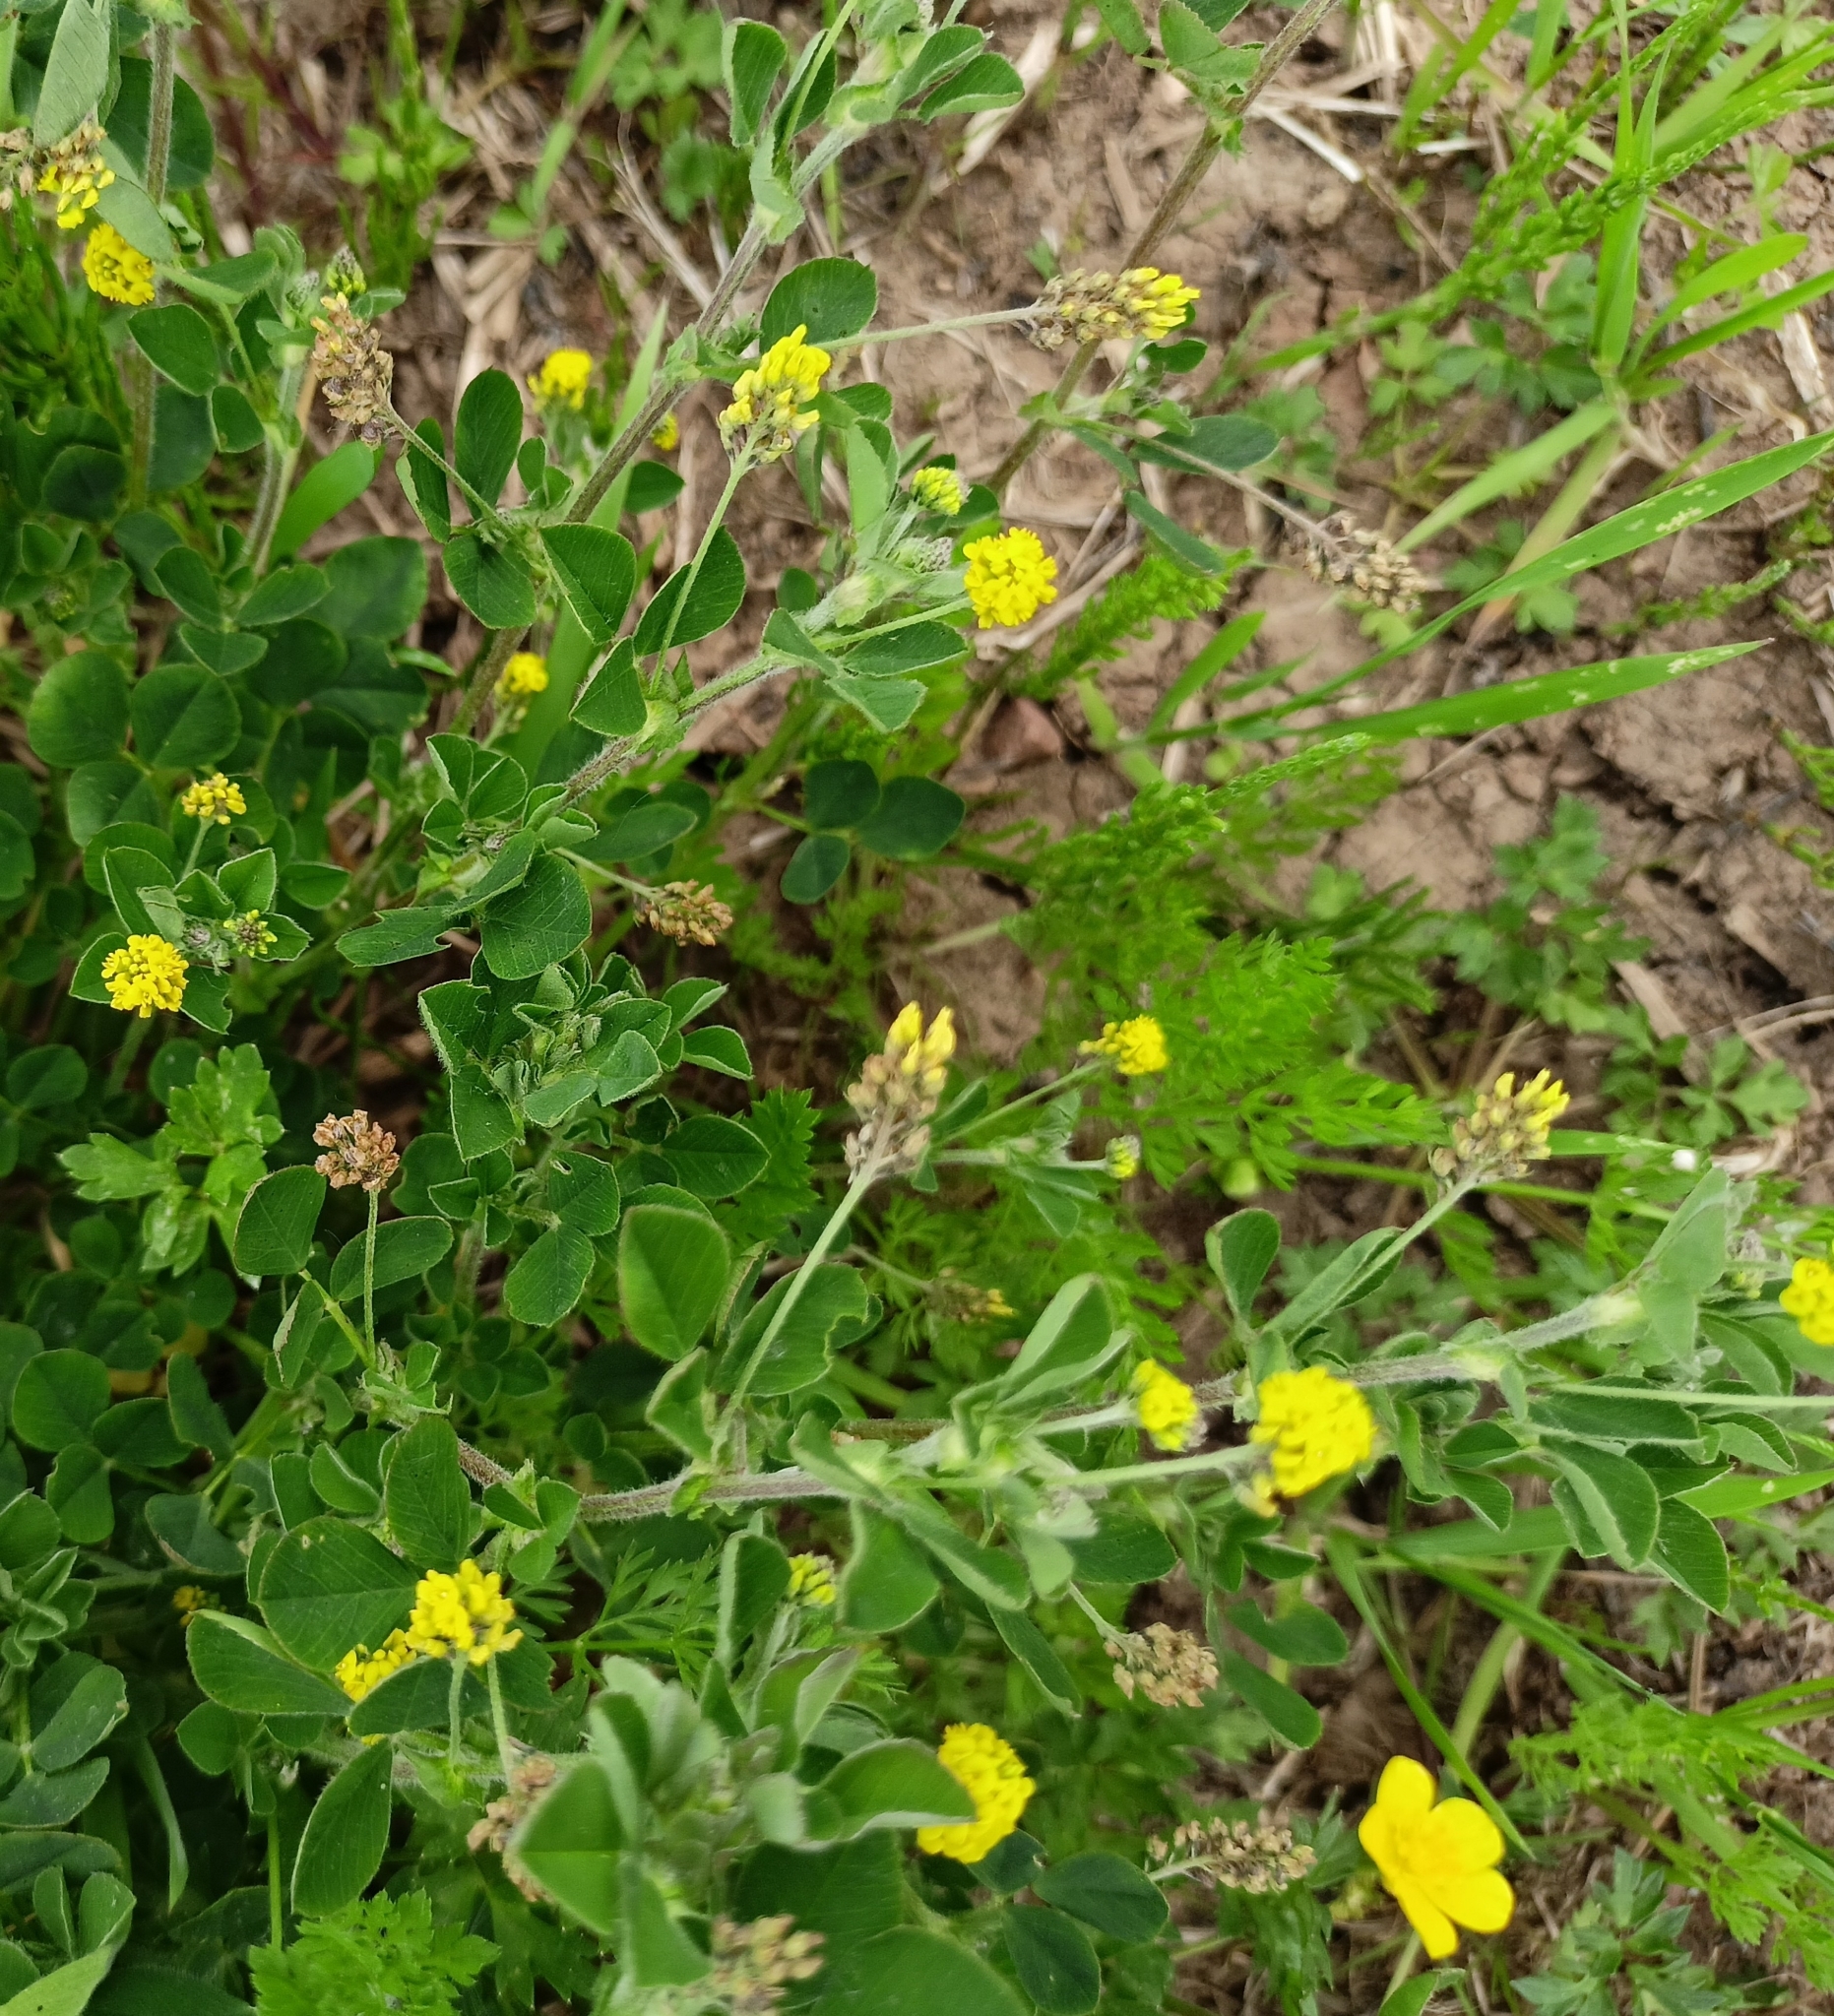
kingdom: Plantae
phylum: Tracheophyta
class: Magnoliopsida
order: Fabales
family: Fabaceae
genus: Medicago
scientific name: Medicago lupulina
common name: Black medick
